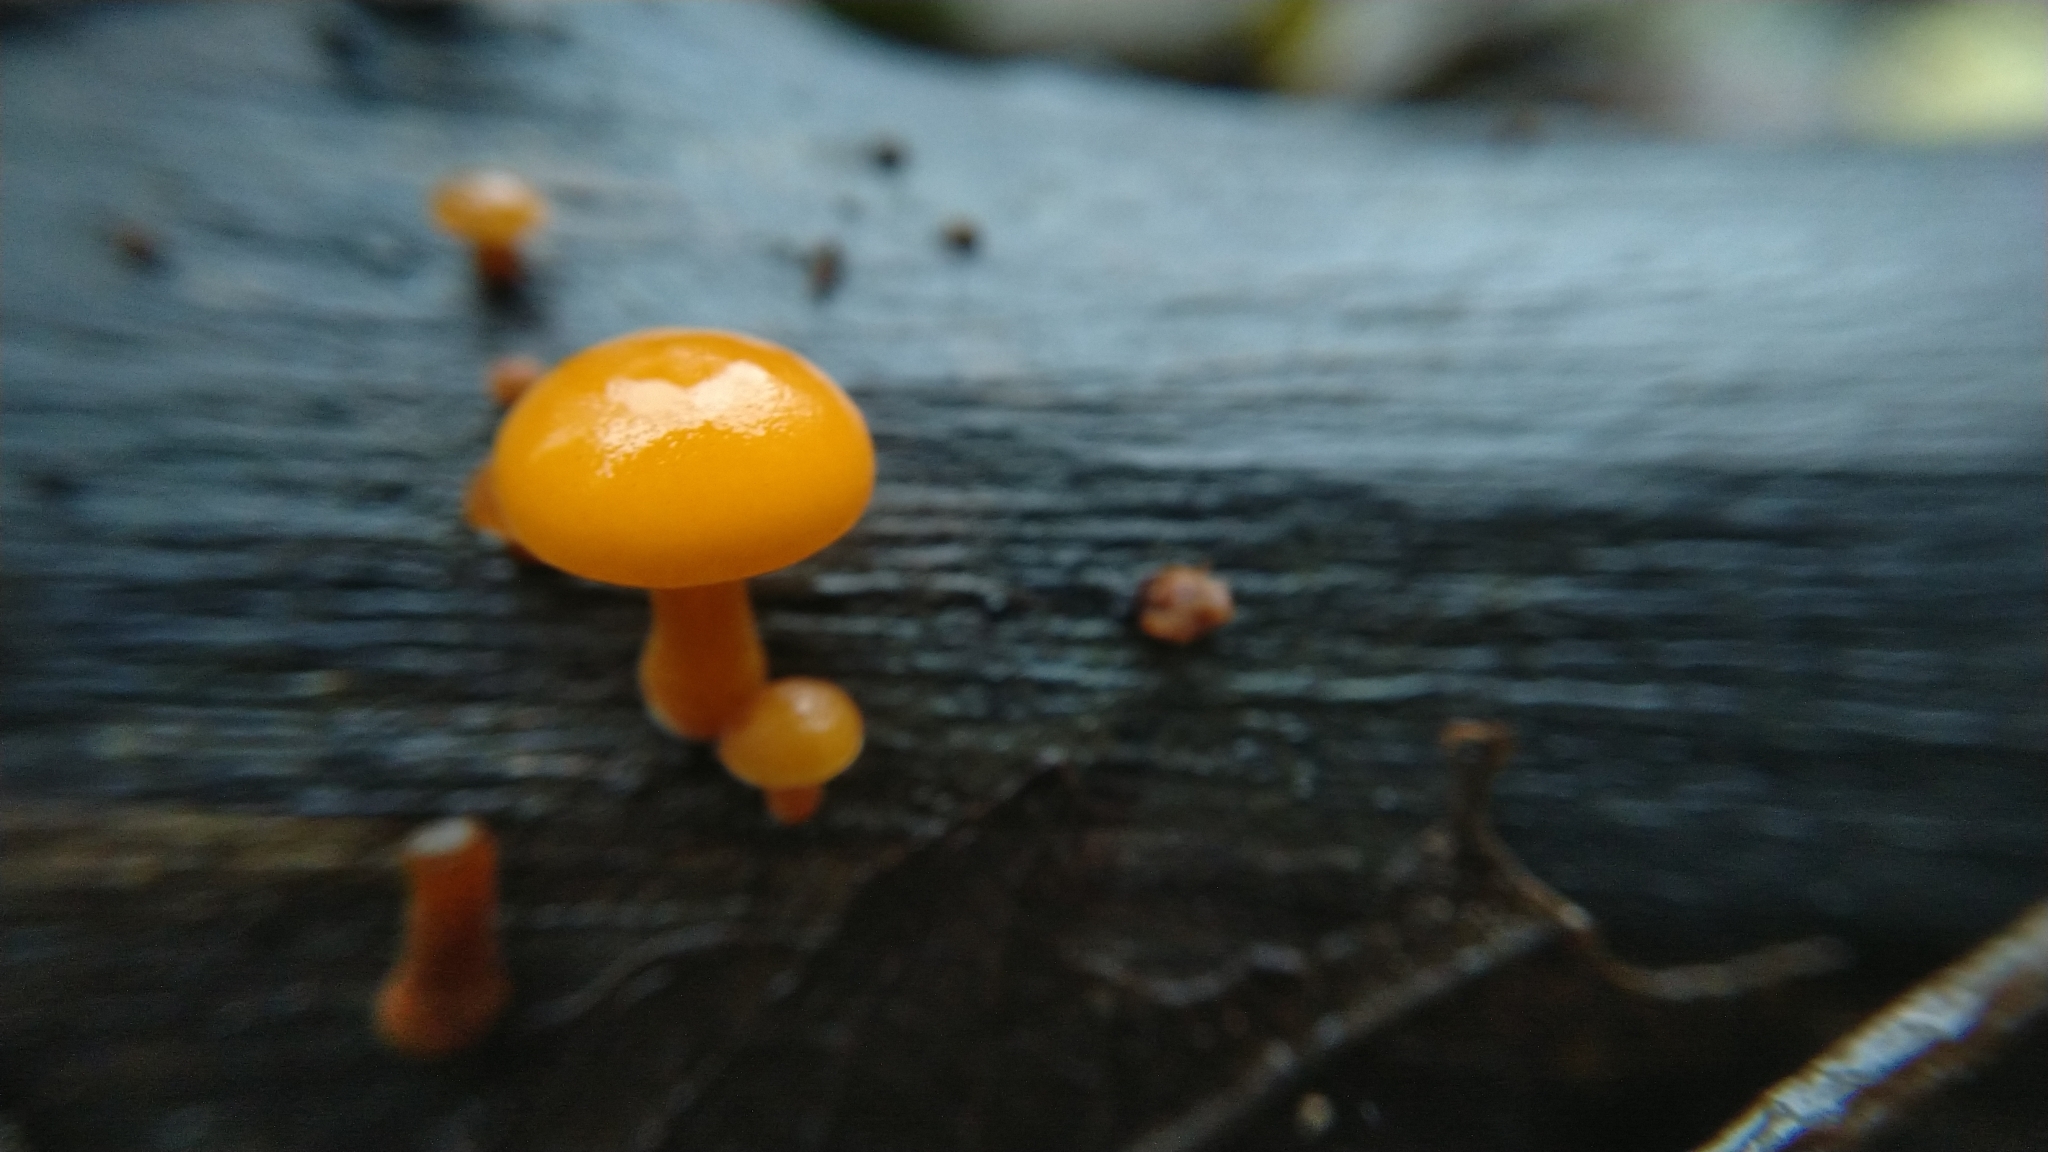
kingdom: Fungi
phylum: Basidiomycota
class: Agaricomycetes
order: Agaricales
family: Physalacriaceae
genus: Flammulina
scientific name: Flammulina
